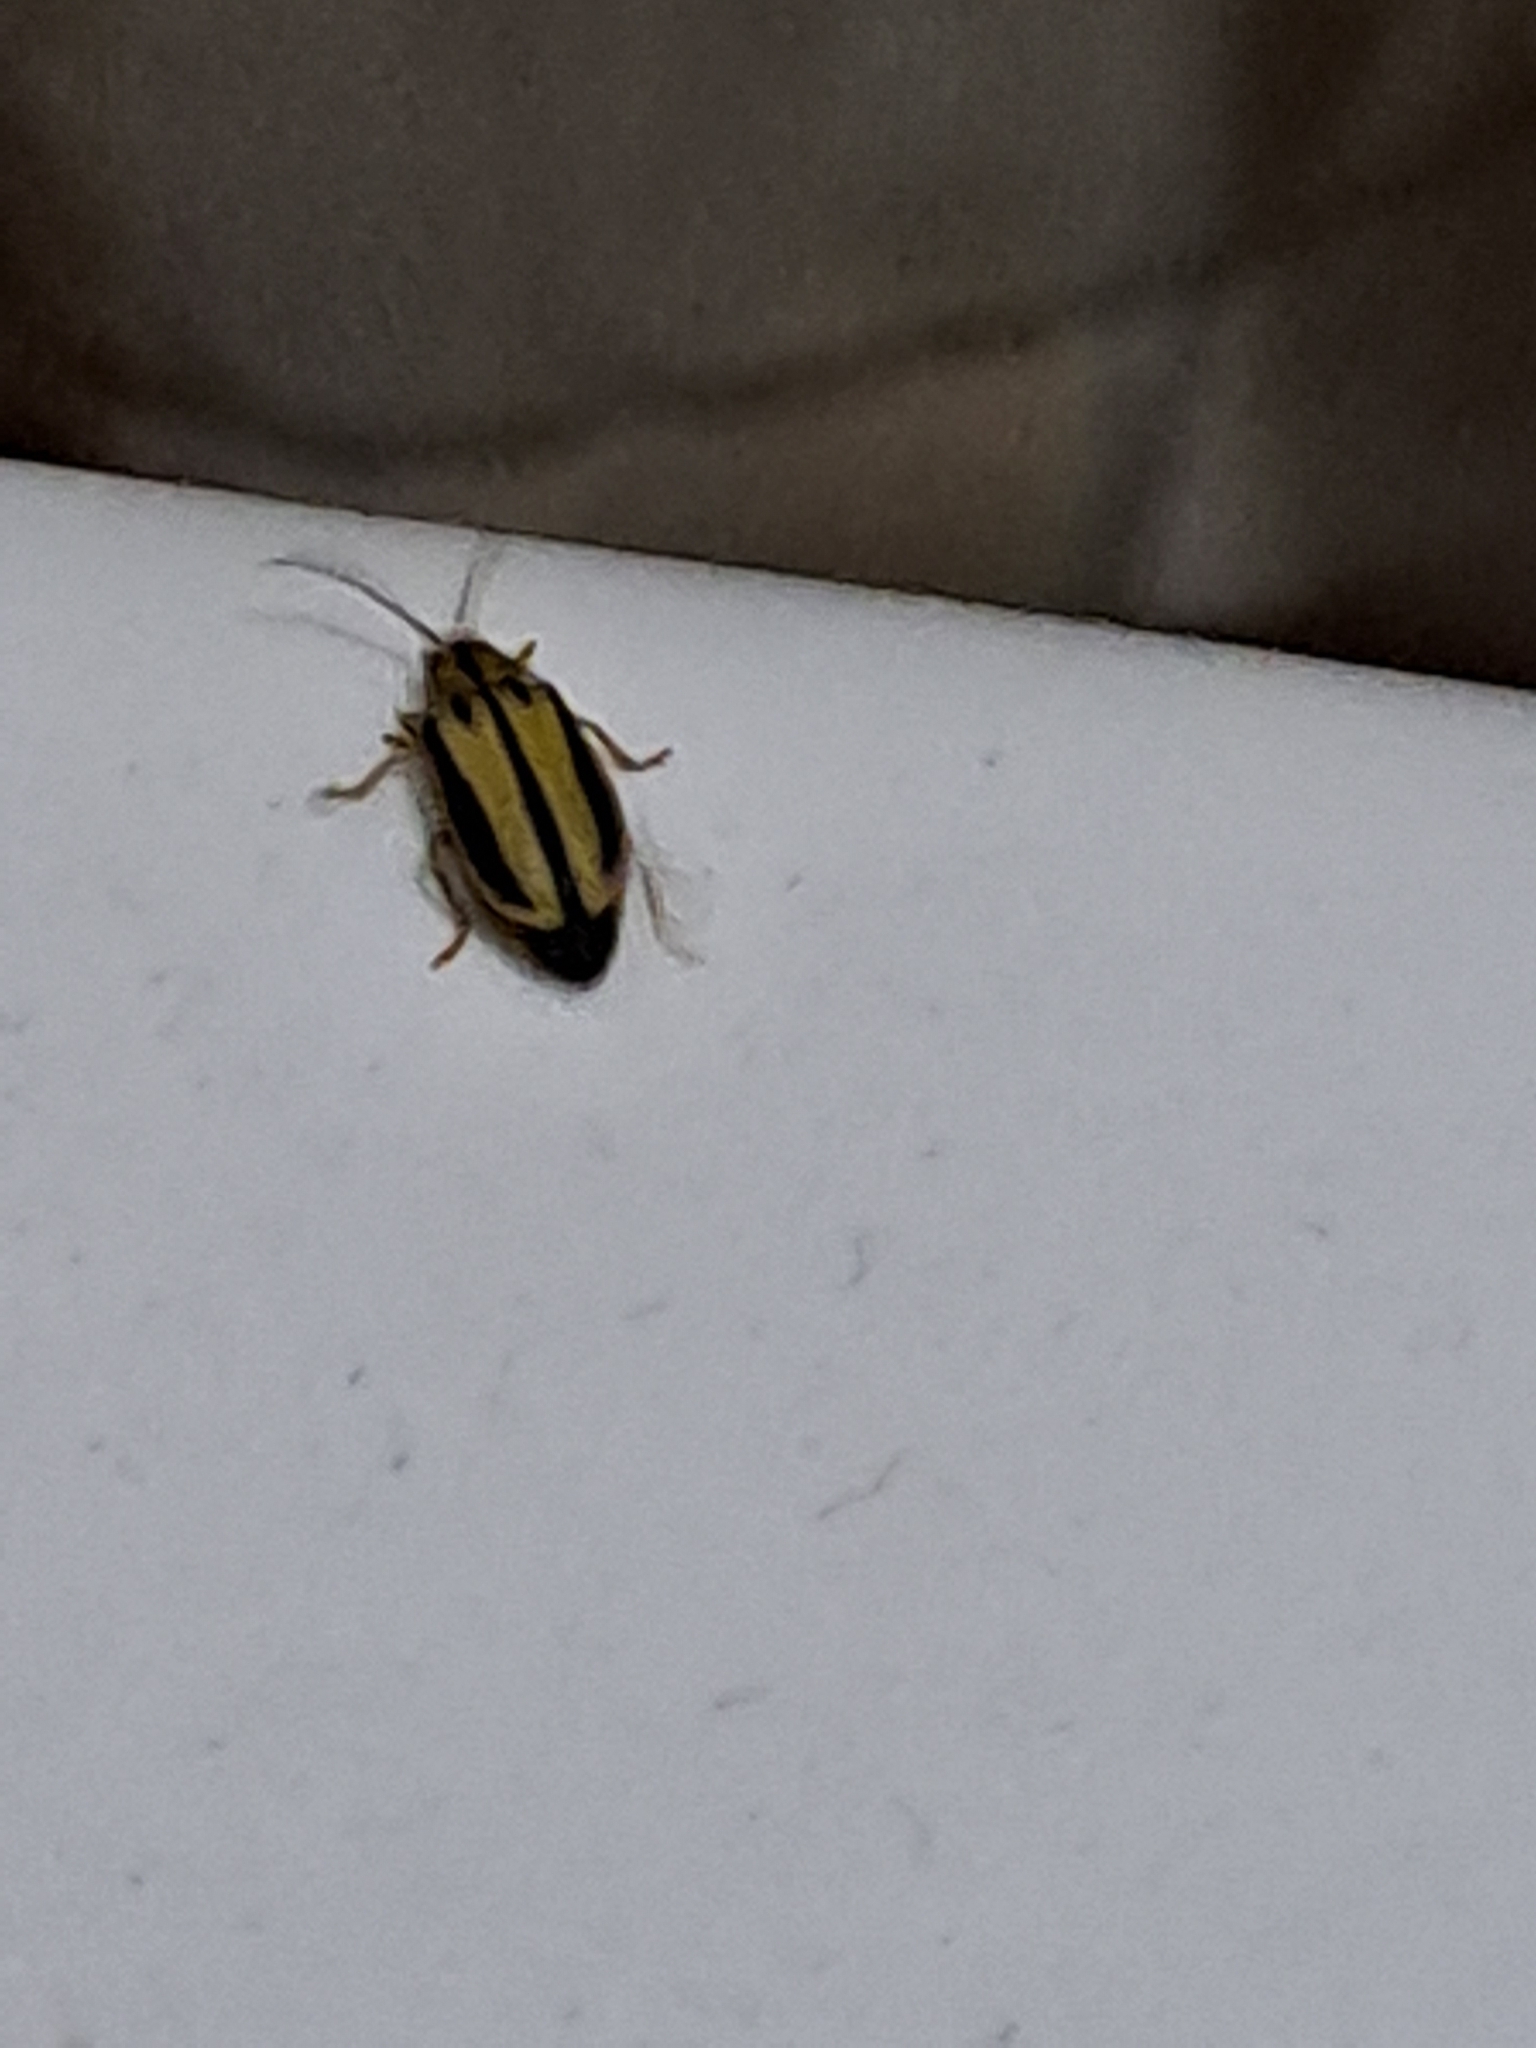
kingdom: Animalia
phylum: Arthropoda
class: Insecta
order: Coleoptera
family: Chrysomelidae
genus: Xanthogaleruca
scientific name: Xanthogaleruca luteola
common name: Elm leaf beetle
